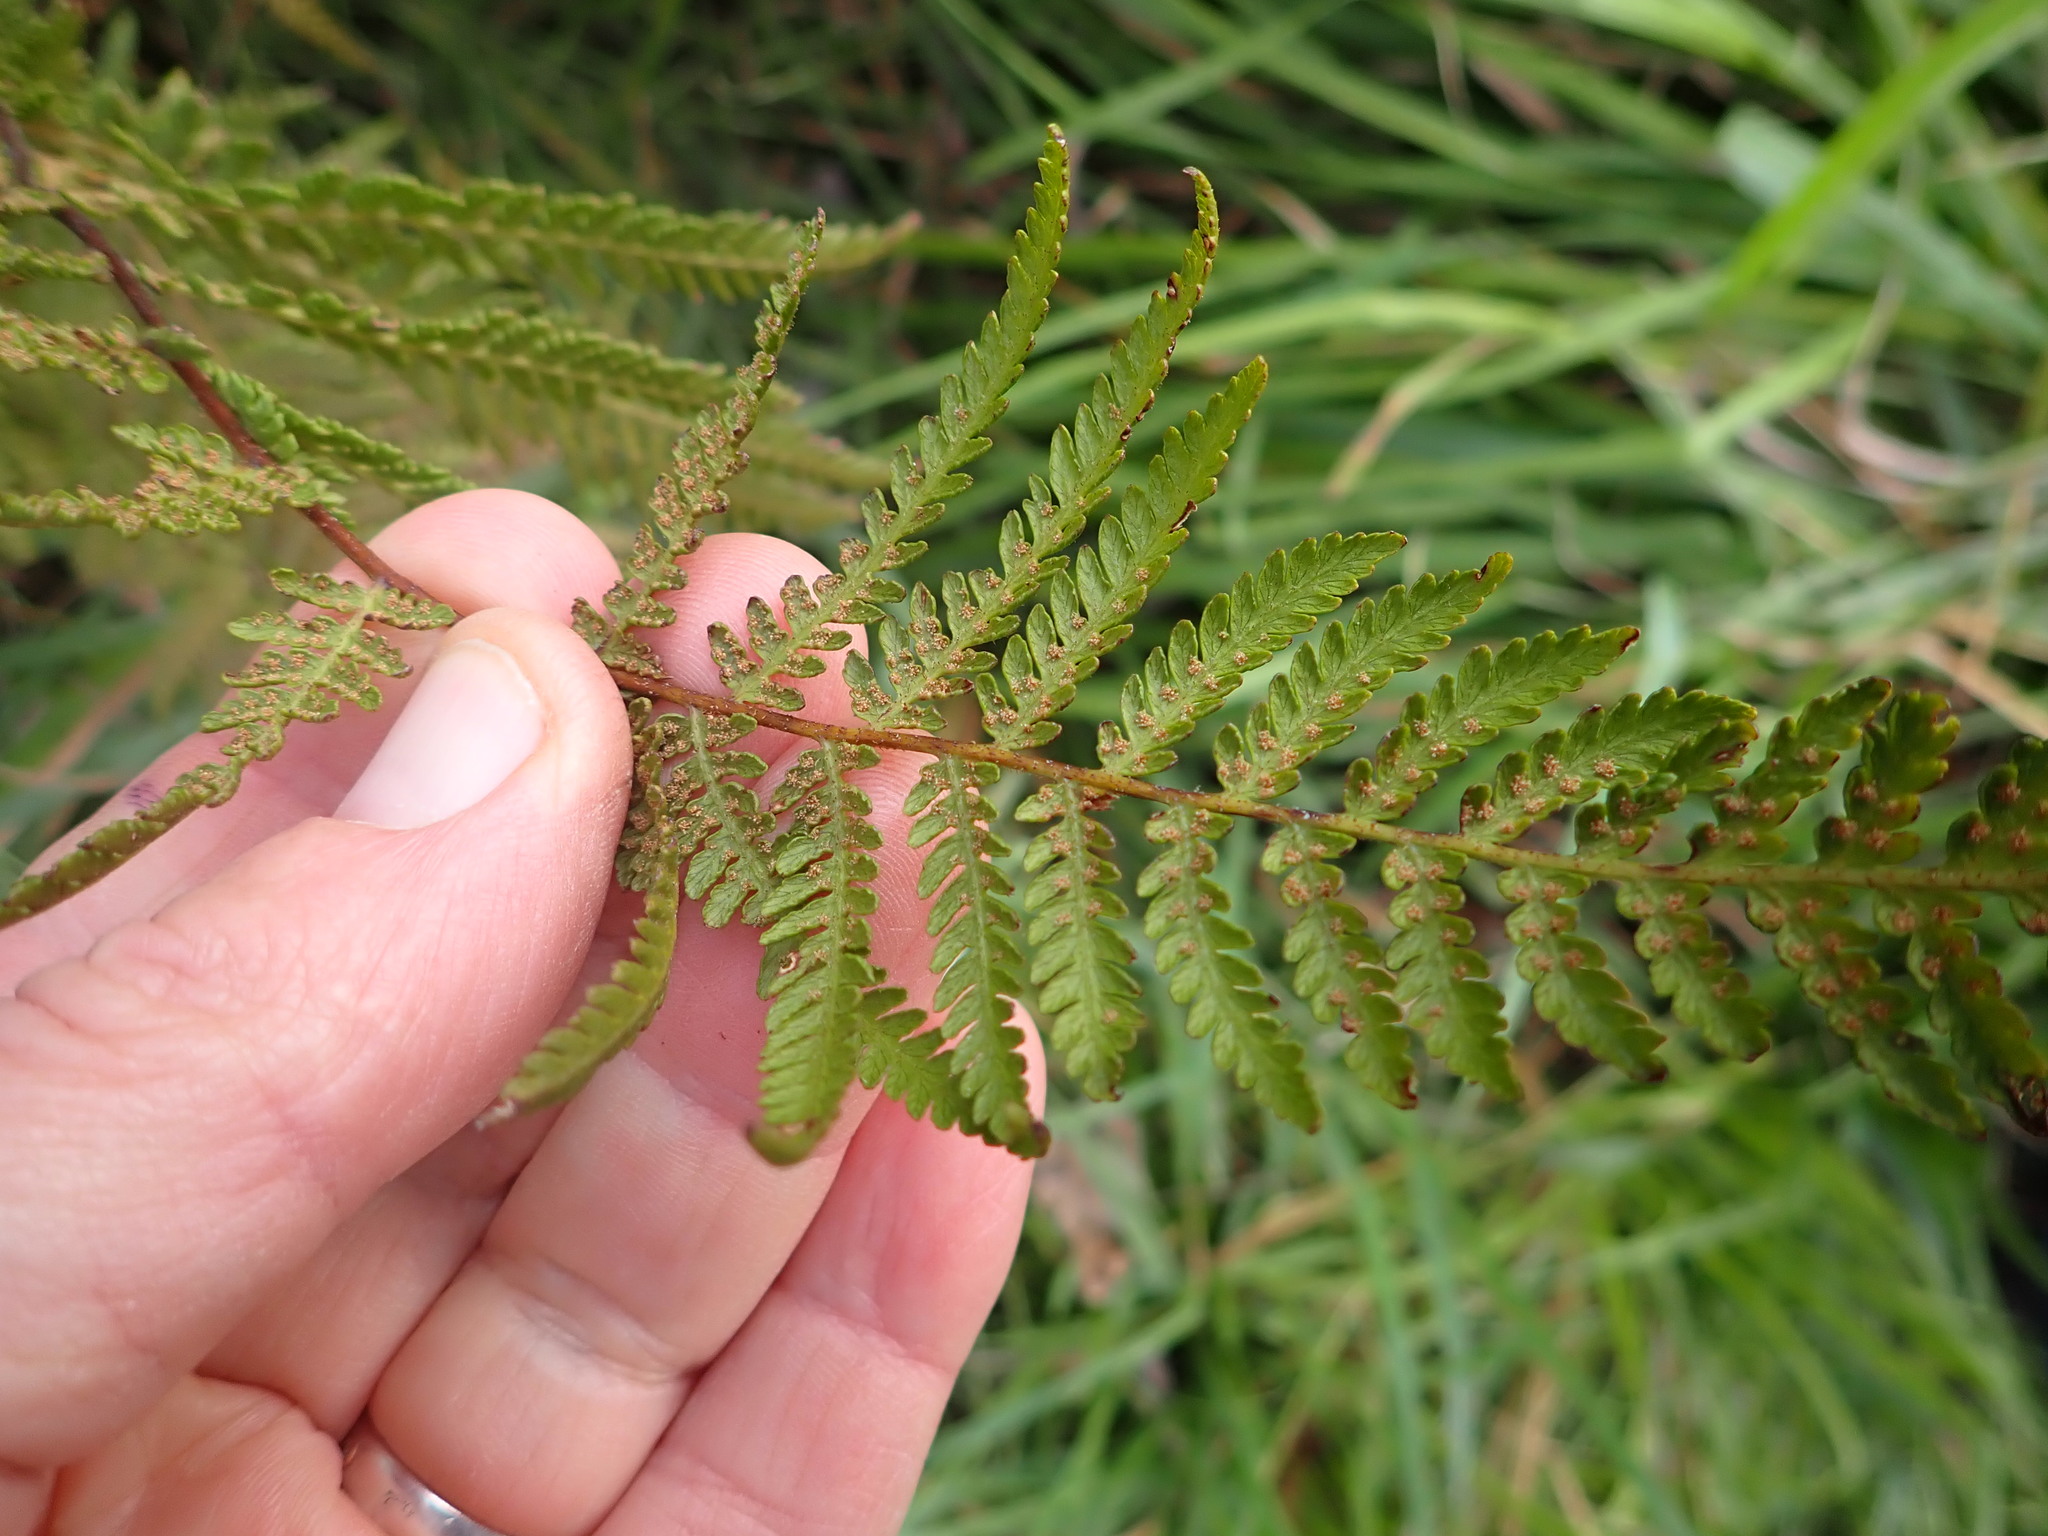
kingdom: Plantae
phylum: Tracheophyta
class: Polypodiopsida
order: Polypodiales
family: Dennstaedtiaceae
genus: Hypolepis
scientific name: Hypolepis ambigua
